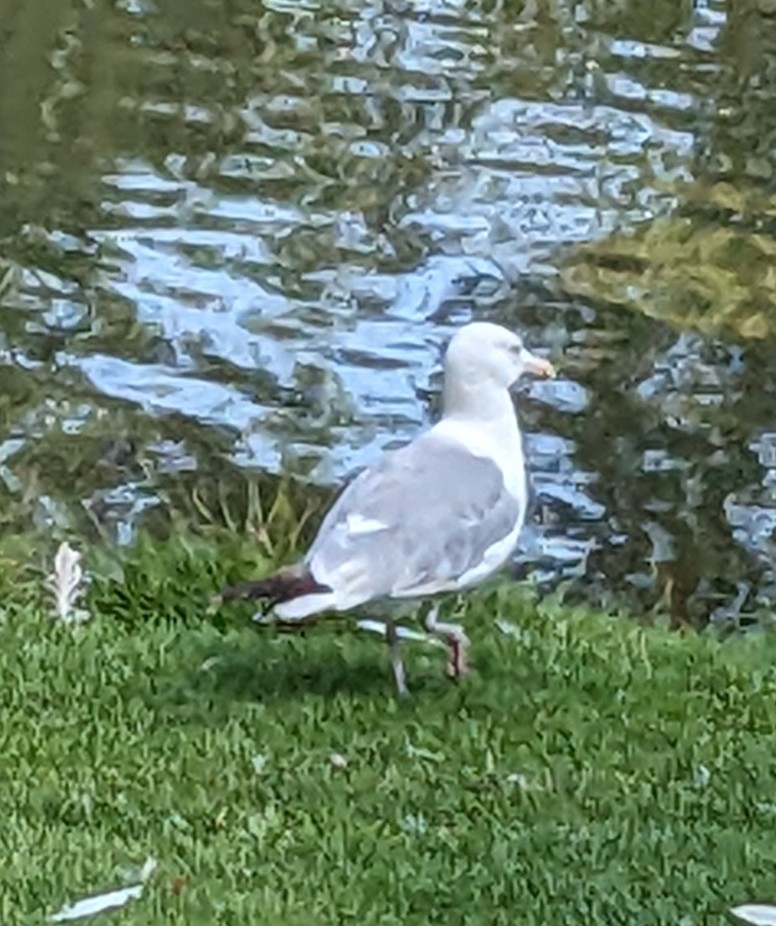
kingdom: Animalia
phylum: Chordata
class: Aves
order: Charadriiformes
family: Laridae
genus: Larus
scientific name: Larus argentatus
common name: Herring gull
